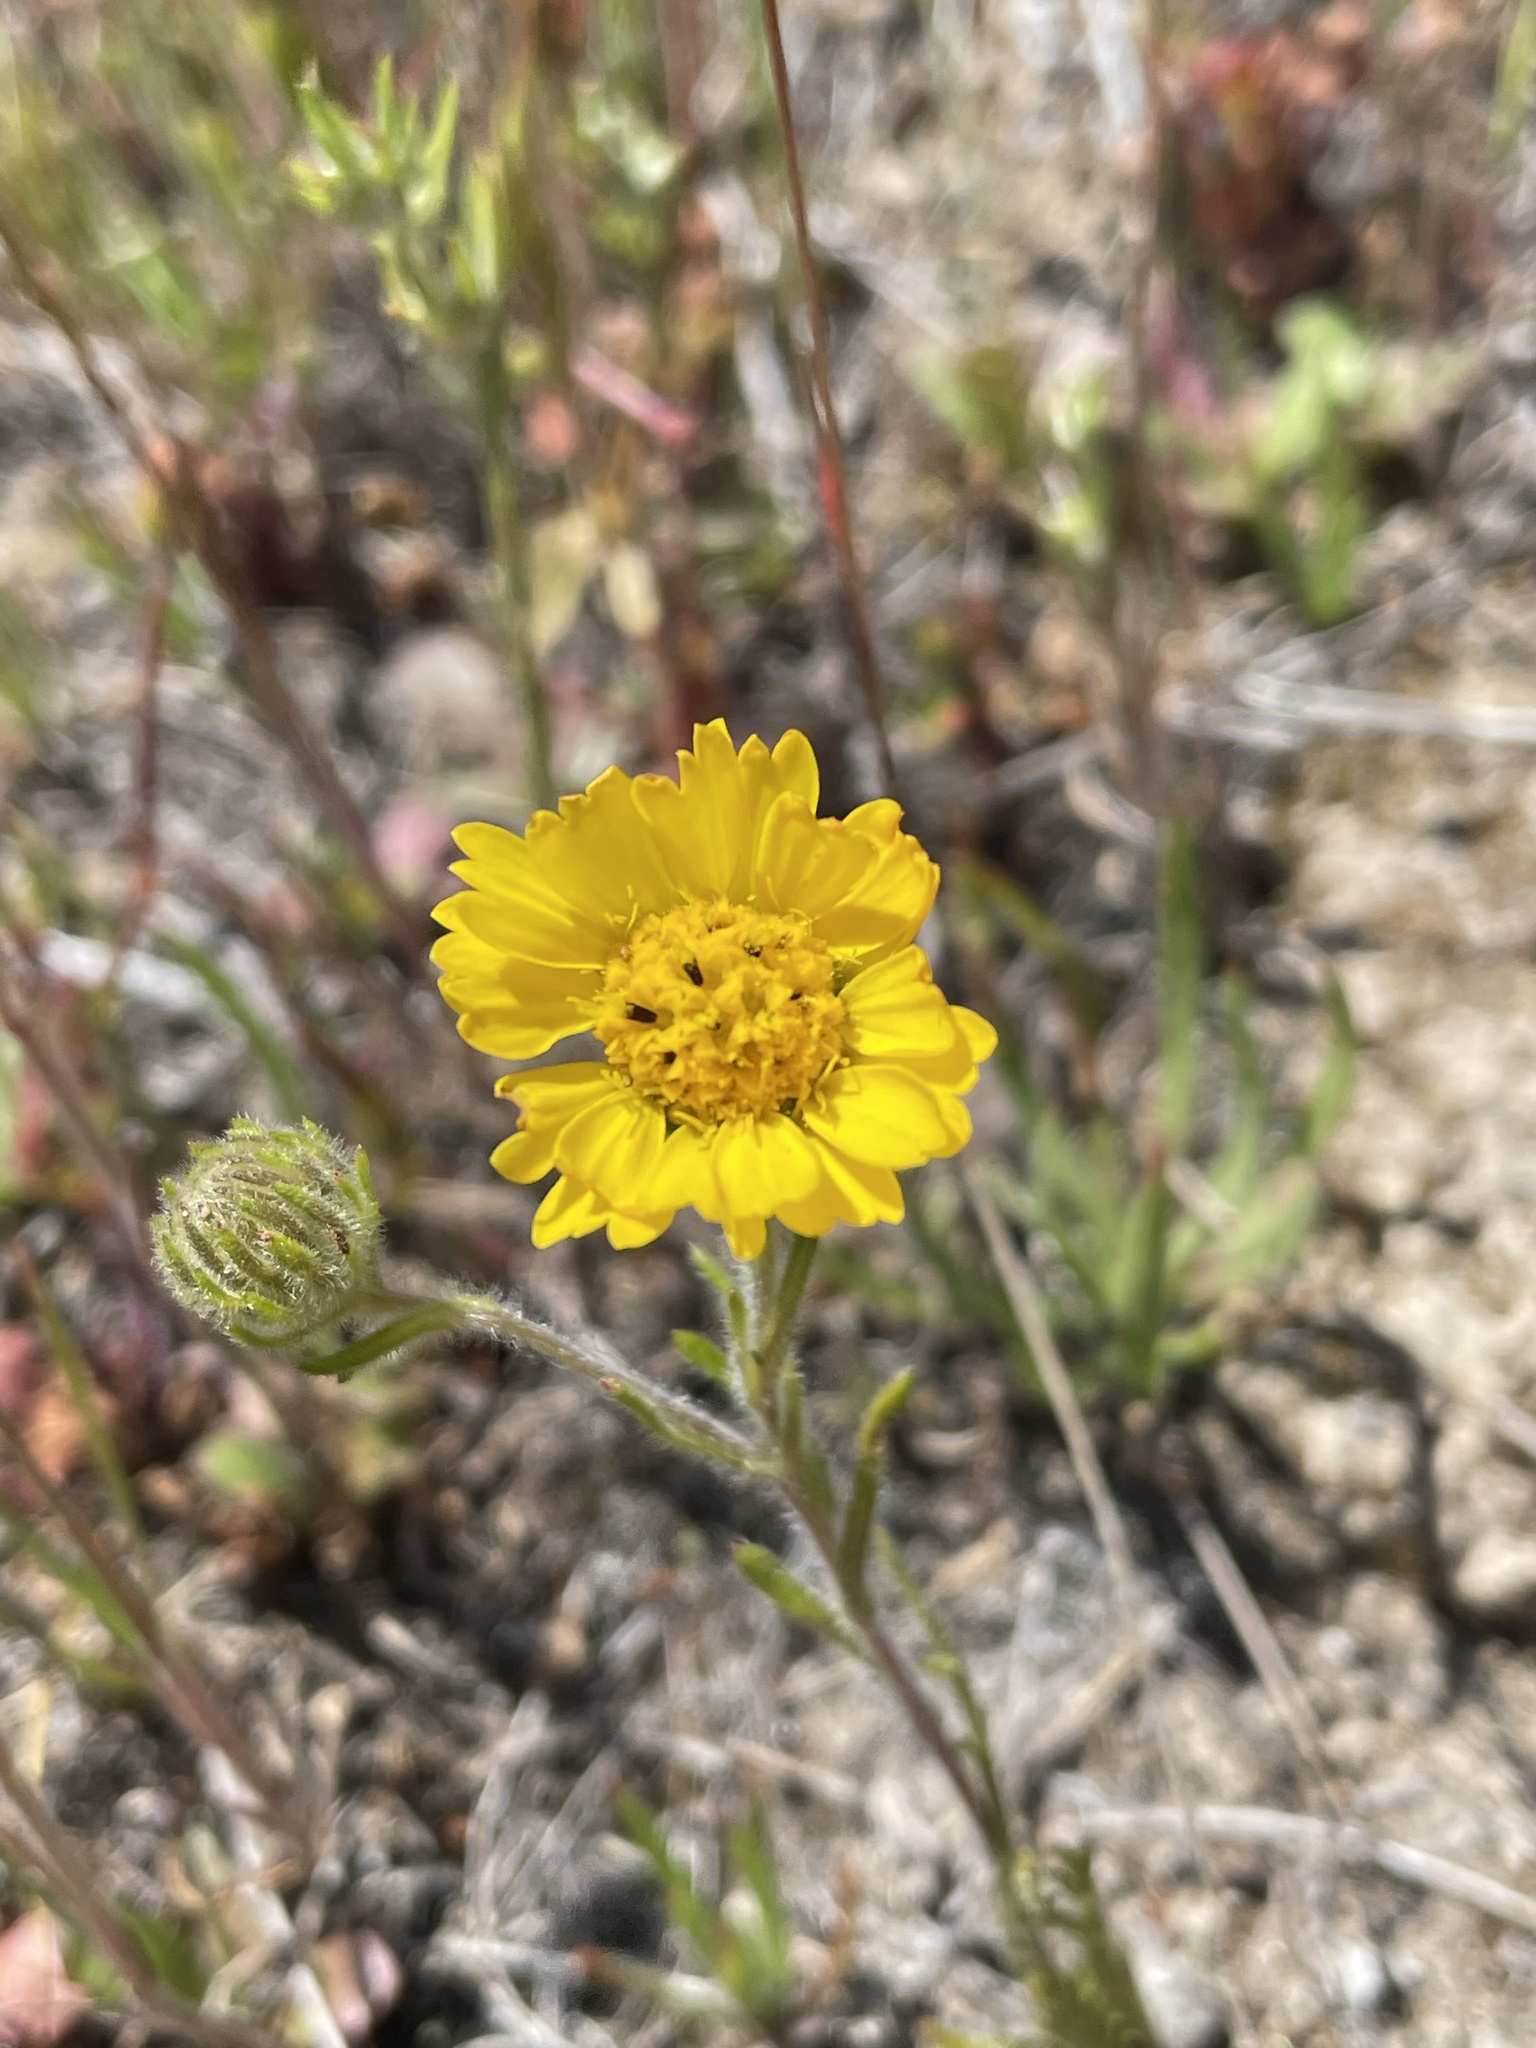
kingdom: Plantae
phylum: Tracheophyta
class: Magnoliopsida
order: Asterales
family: Asteraceae
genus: Deinandra
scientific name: Deinandra corymbosa
